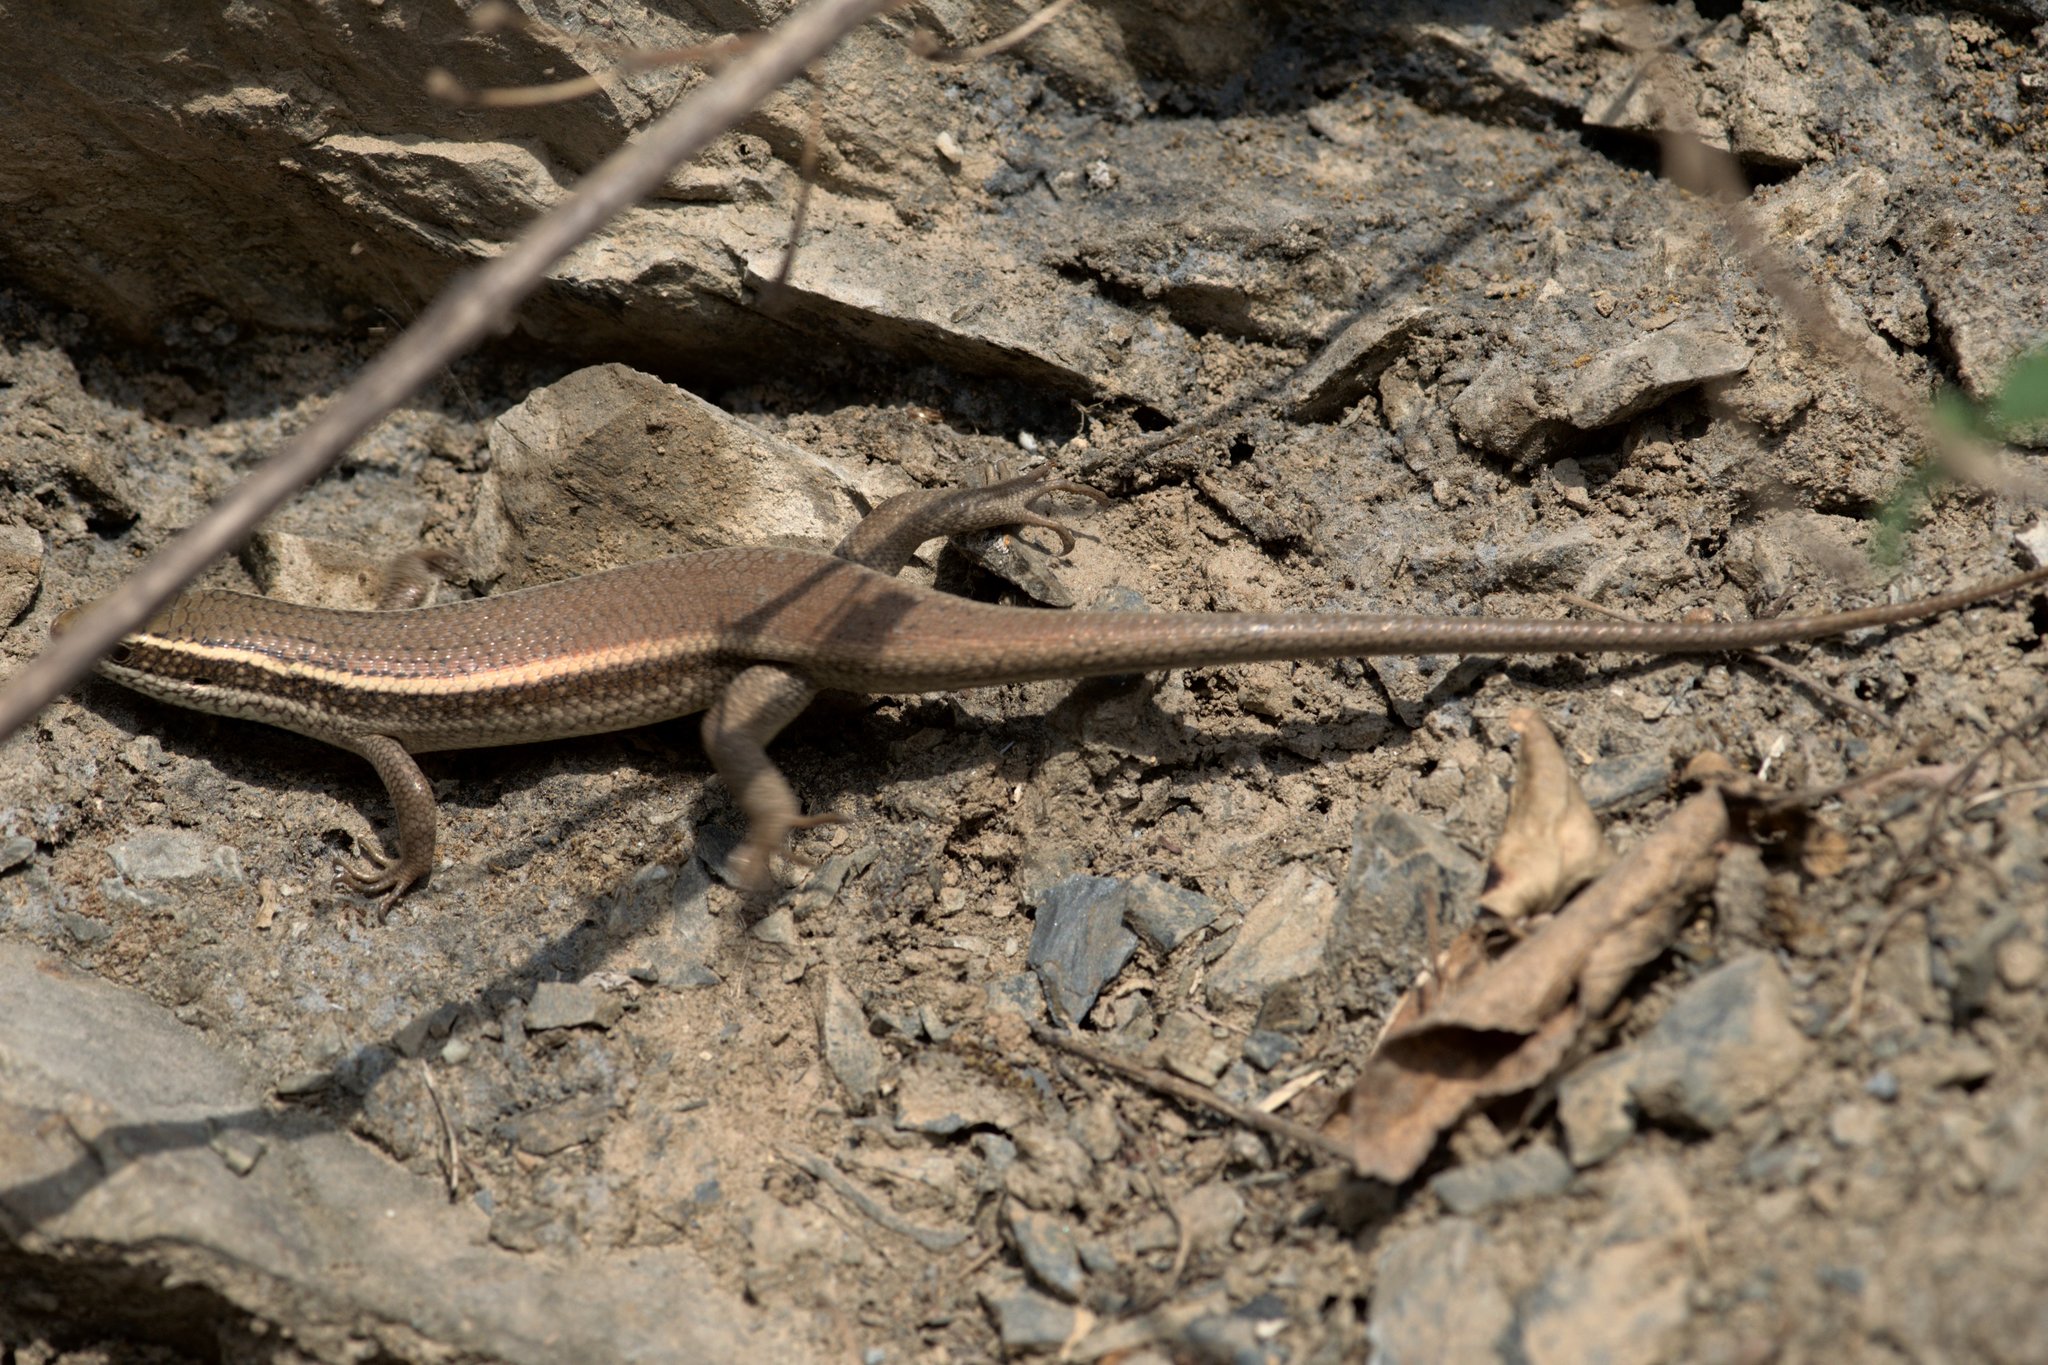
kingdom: Animalia
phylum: Chordata
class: Squamata
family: Scincidae
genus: Eutropis
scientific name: Eutropis carinata
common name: Keeled indian mabuya
